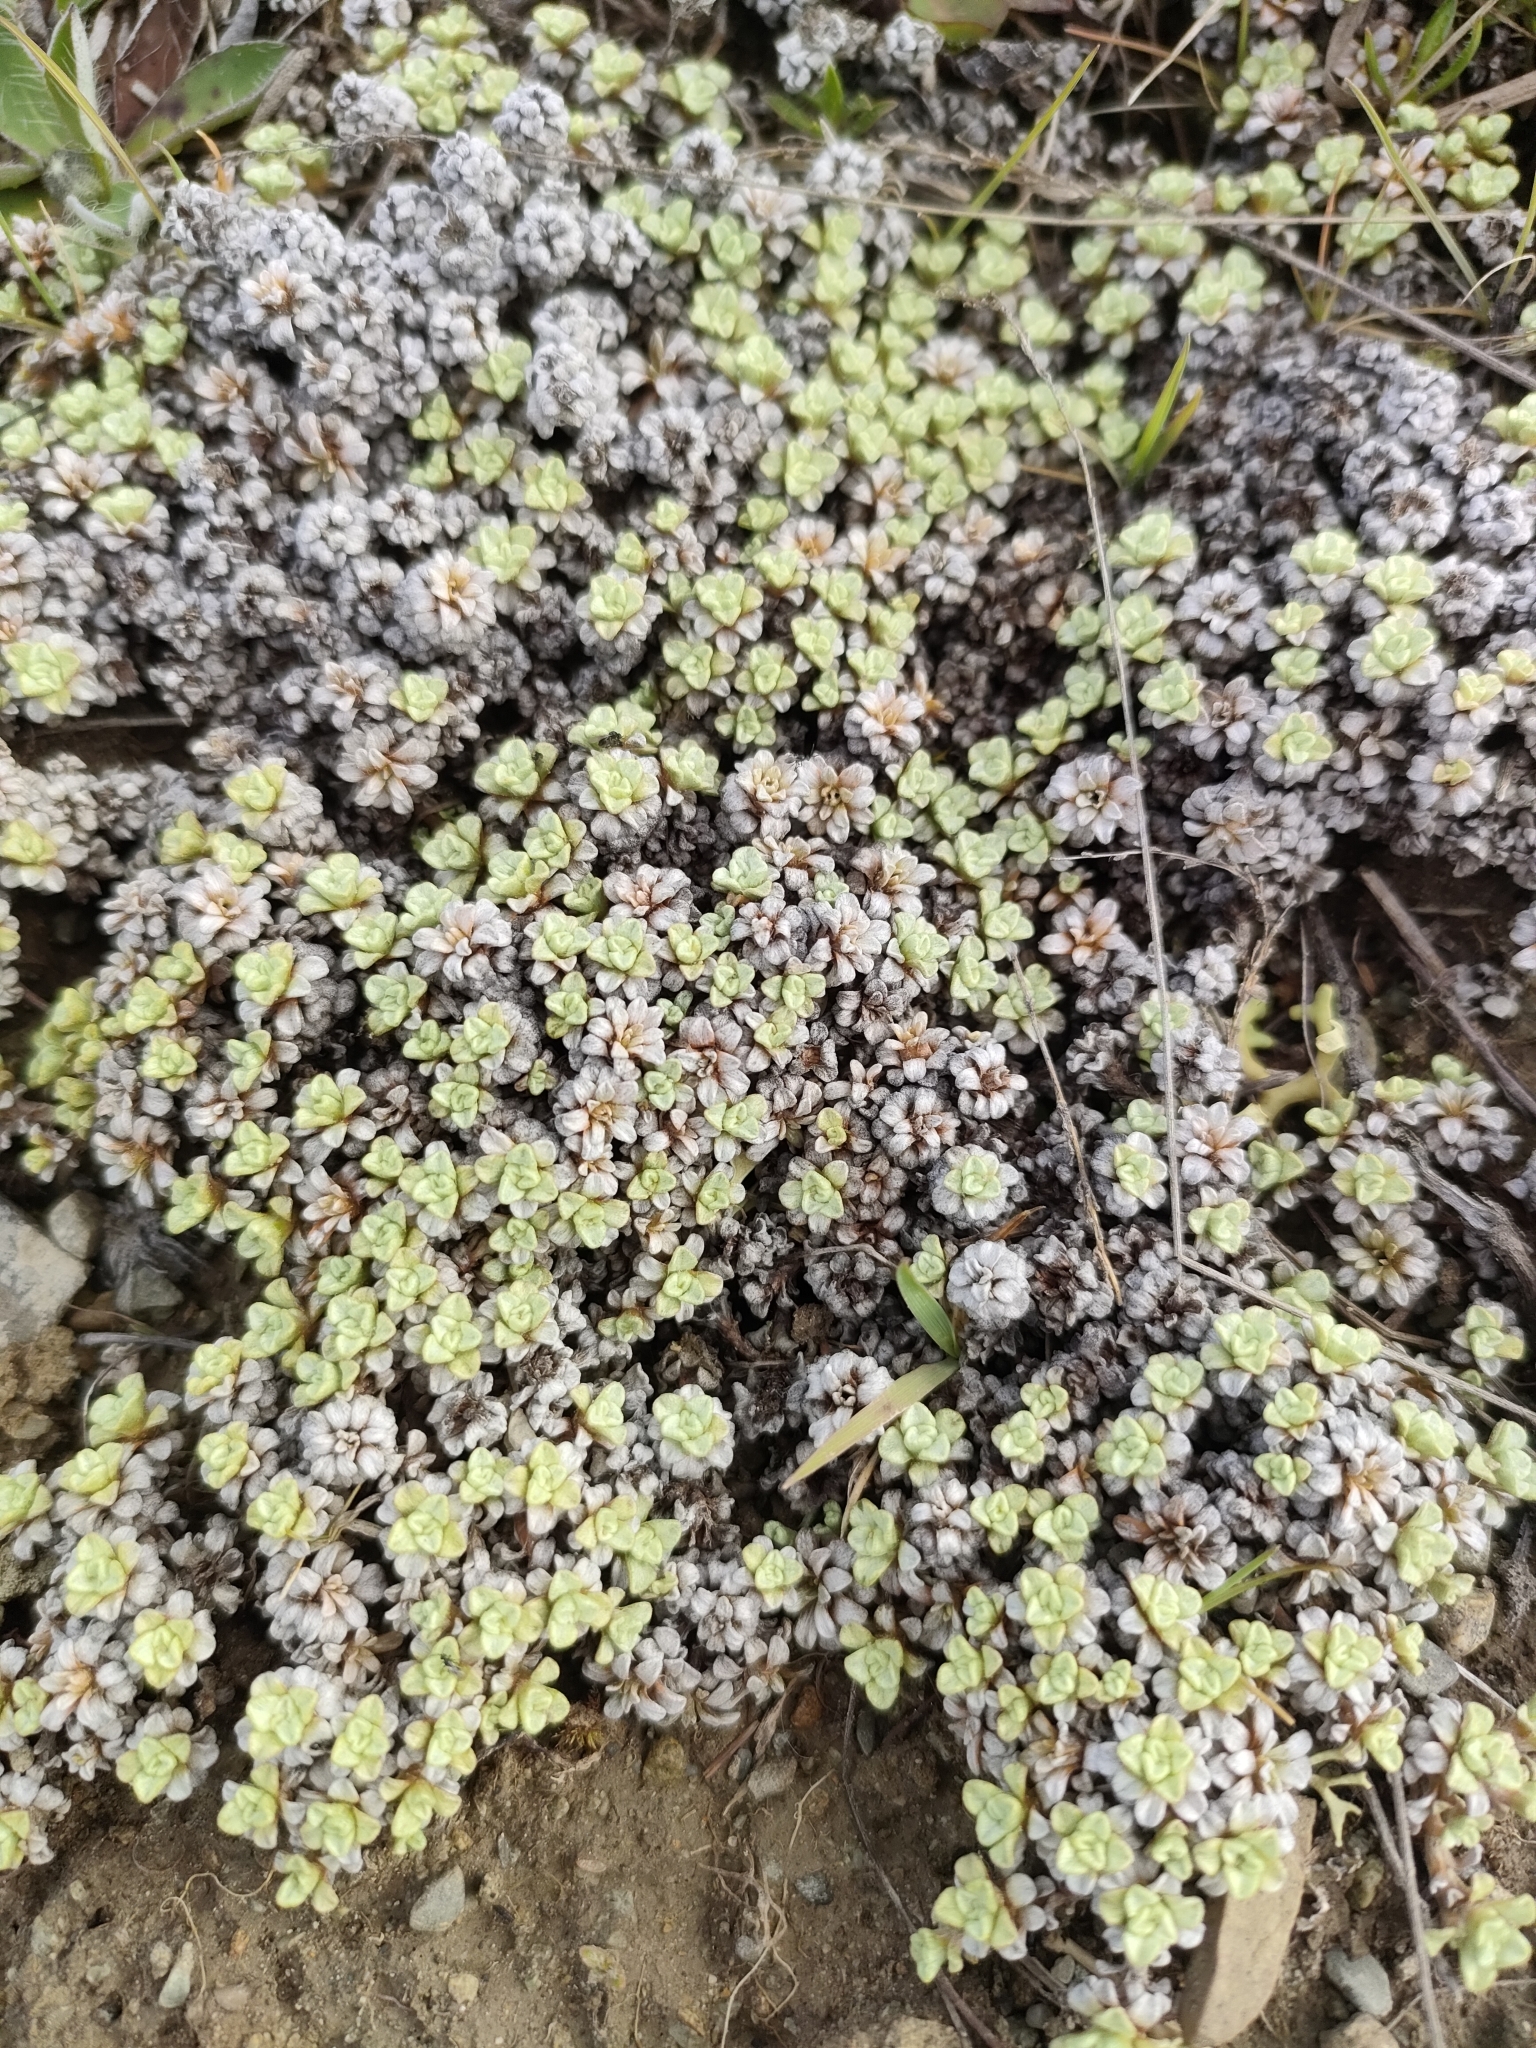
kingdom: Plantae
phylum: Tracheophyta
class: Magnoliopsida
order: Asterales
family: Asteraceae
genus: Raoulia
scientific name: Raoulia parkii
